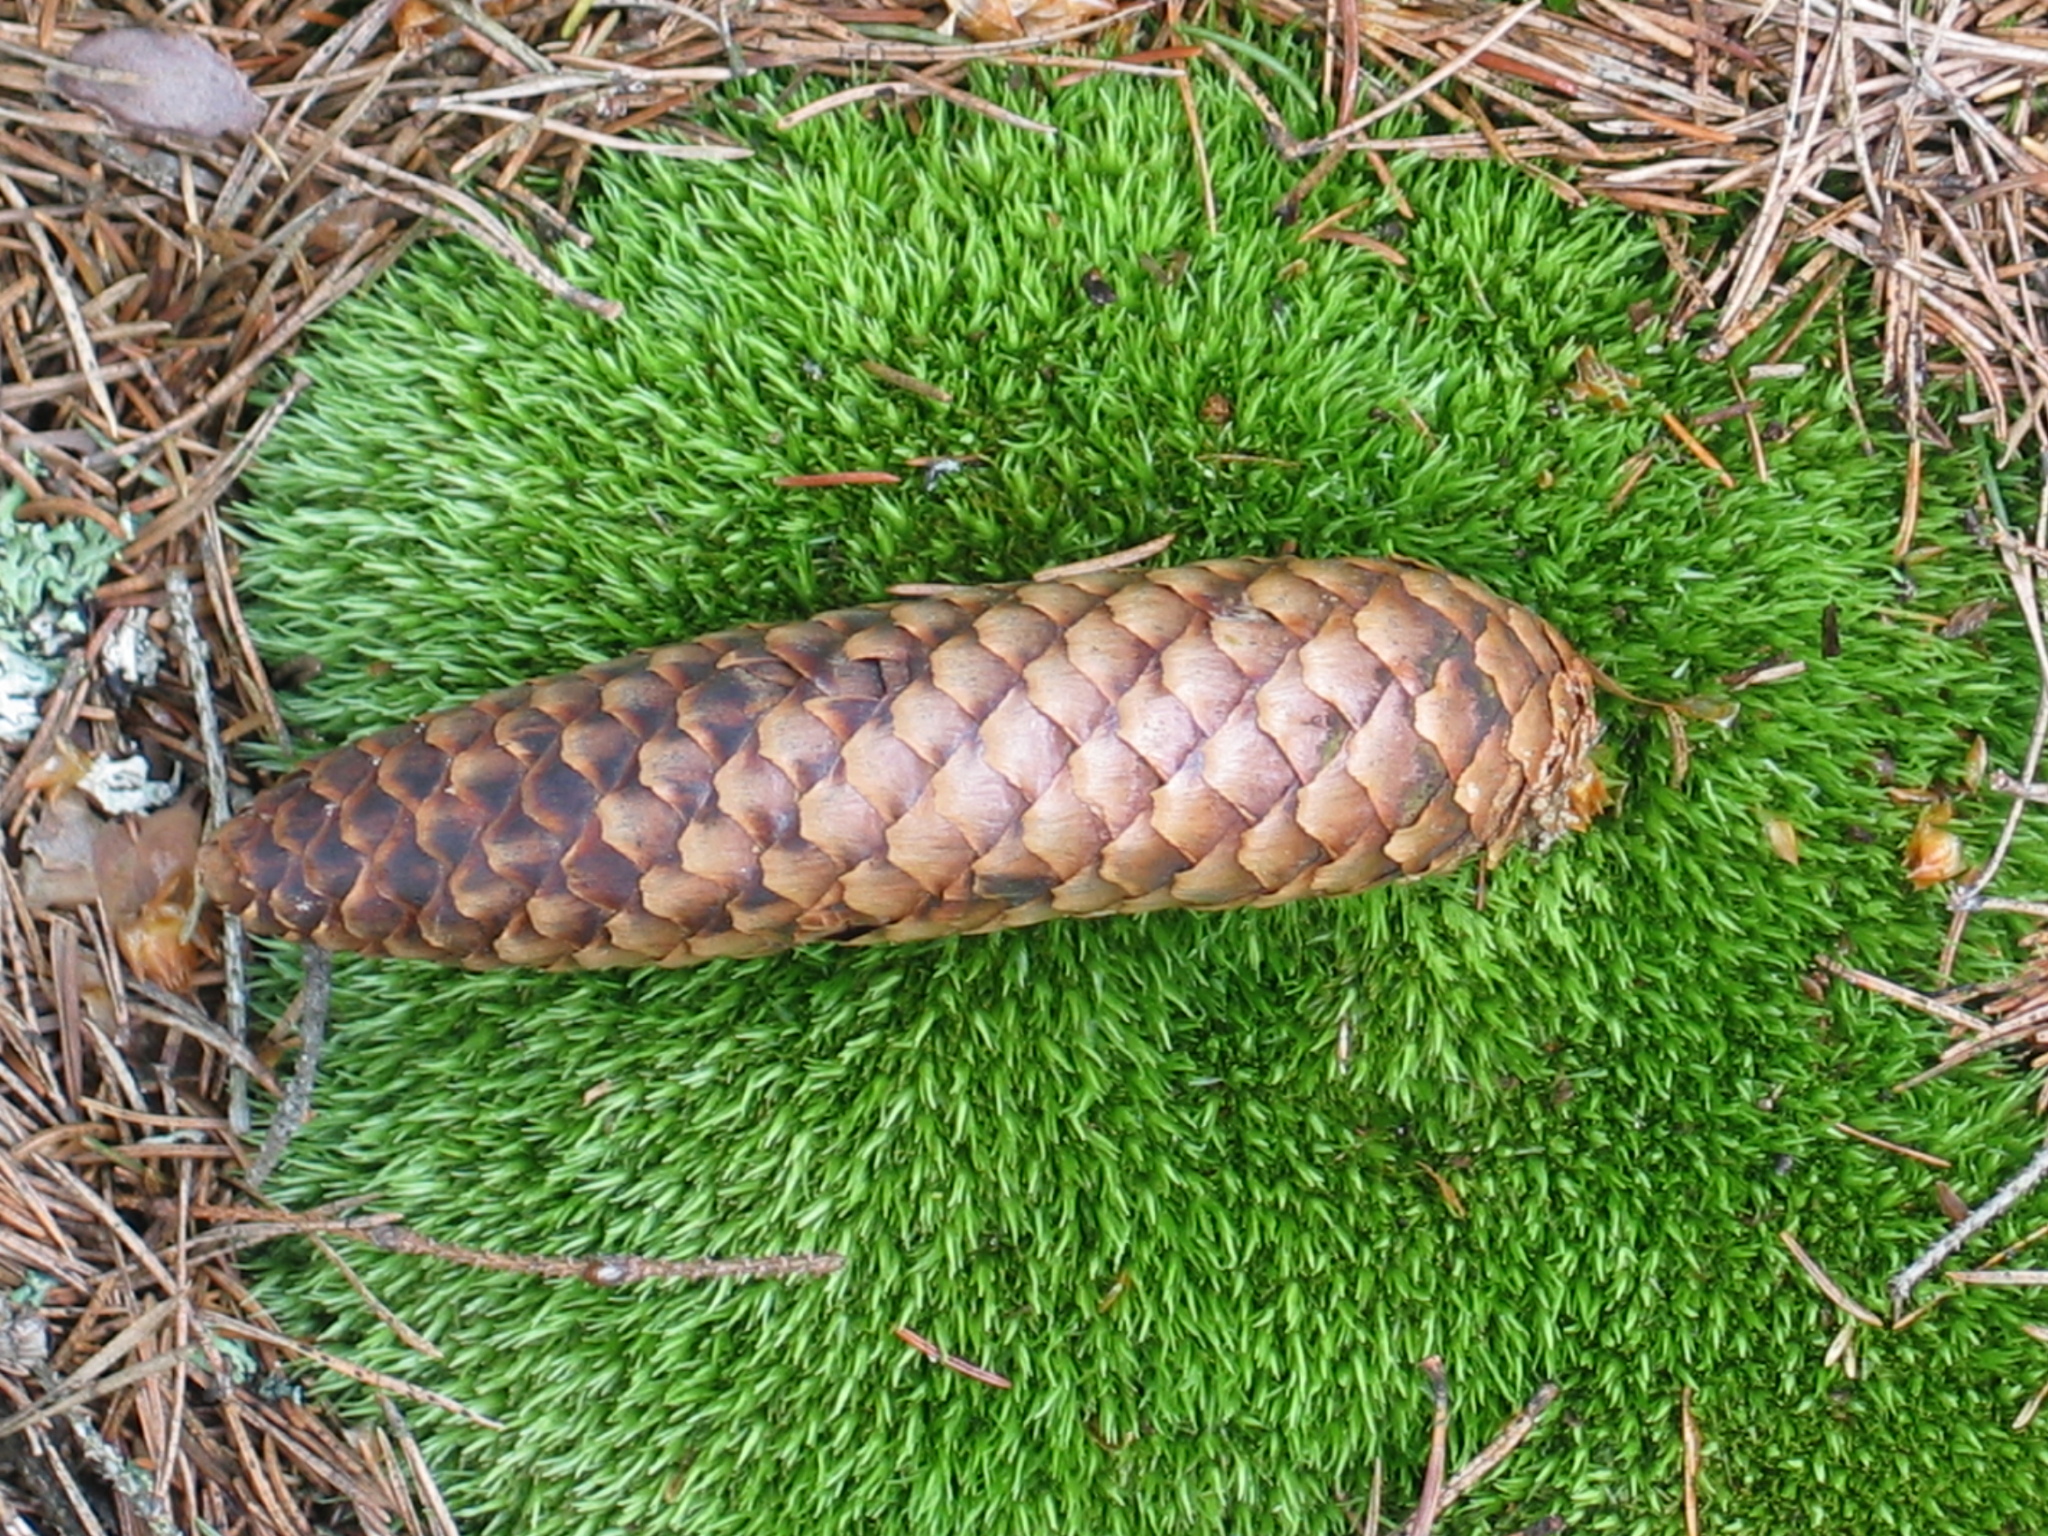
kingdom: Plantae
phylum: Tracheophyta
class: Pinopsida
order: Pinales
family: Pinaceae
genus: Picea
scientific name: Picea abies
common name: Norway spruce
